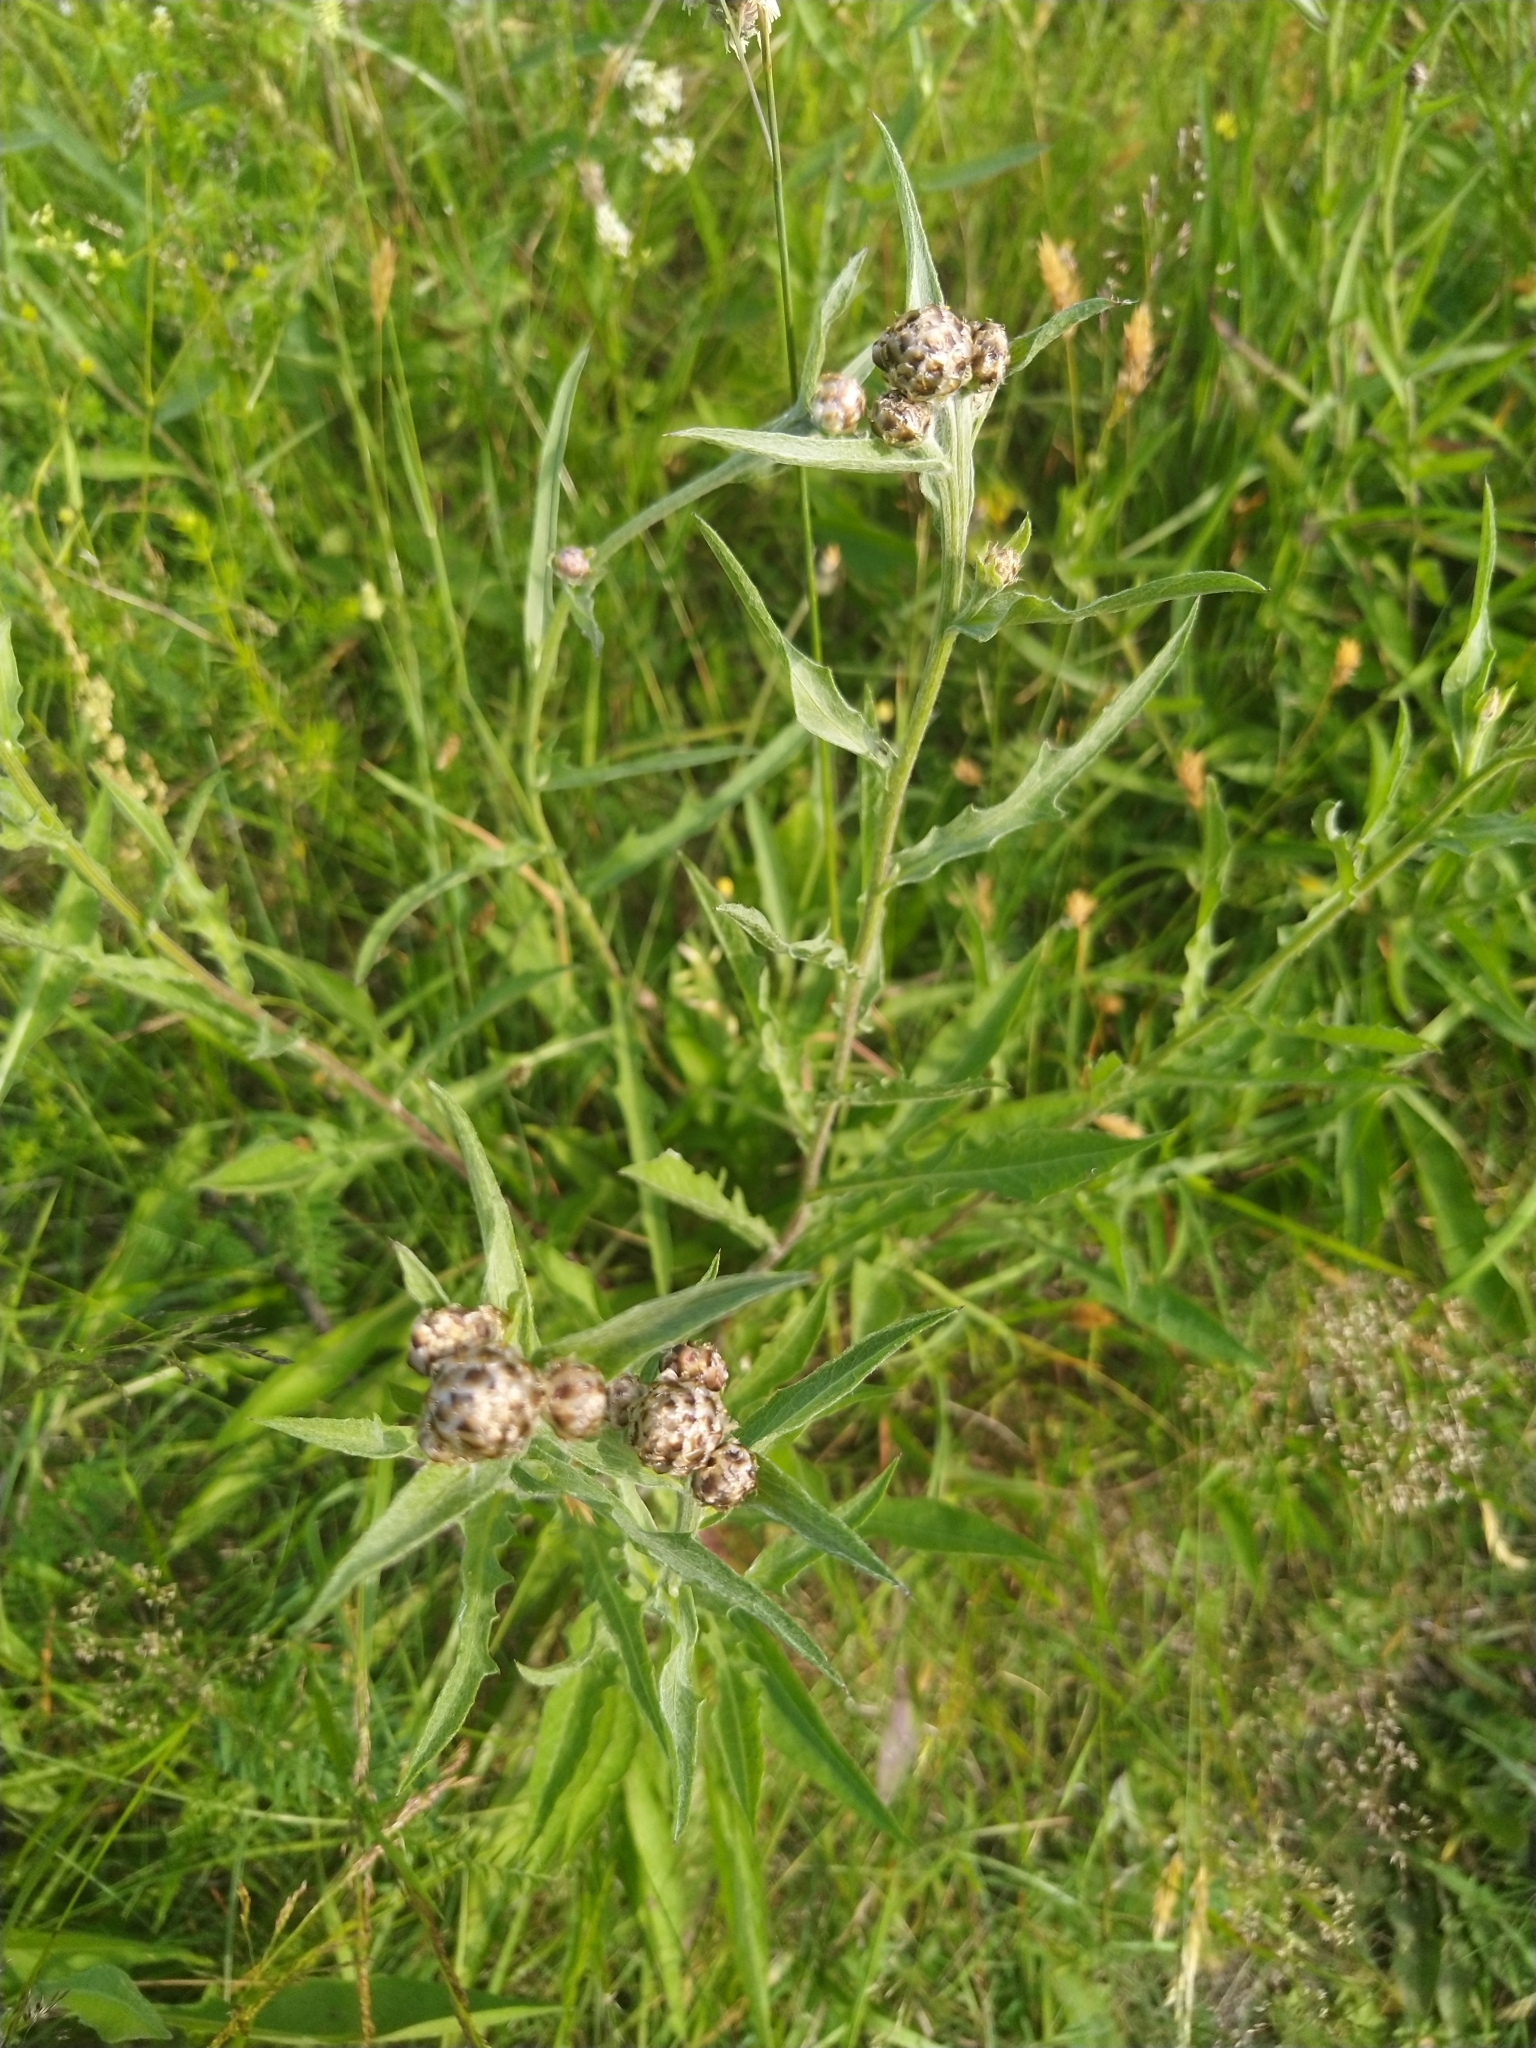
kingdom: Plantae
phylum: Tracheophyta
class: Magnoliopsida
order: Asterales
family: Asteraceae
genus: Centaurea
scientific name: Centaurea jacea
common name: Brown knapweed
